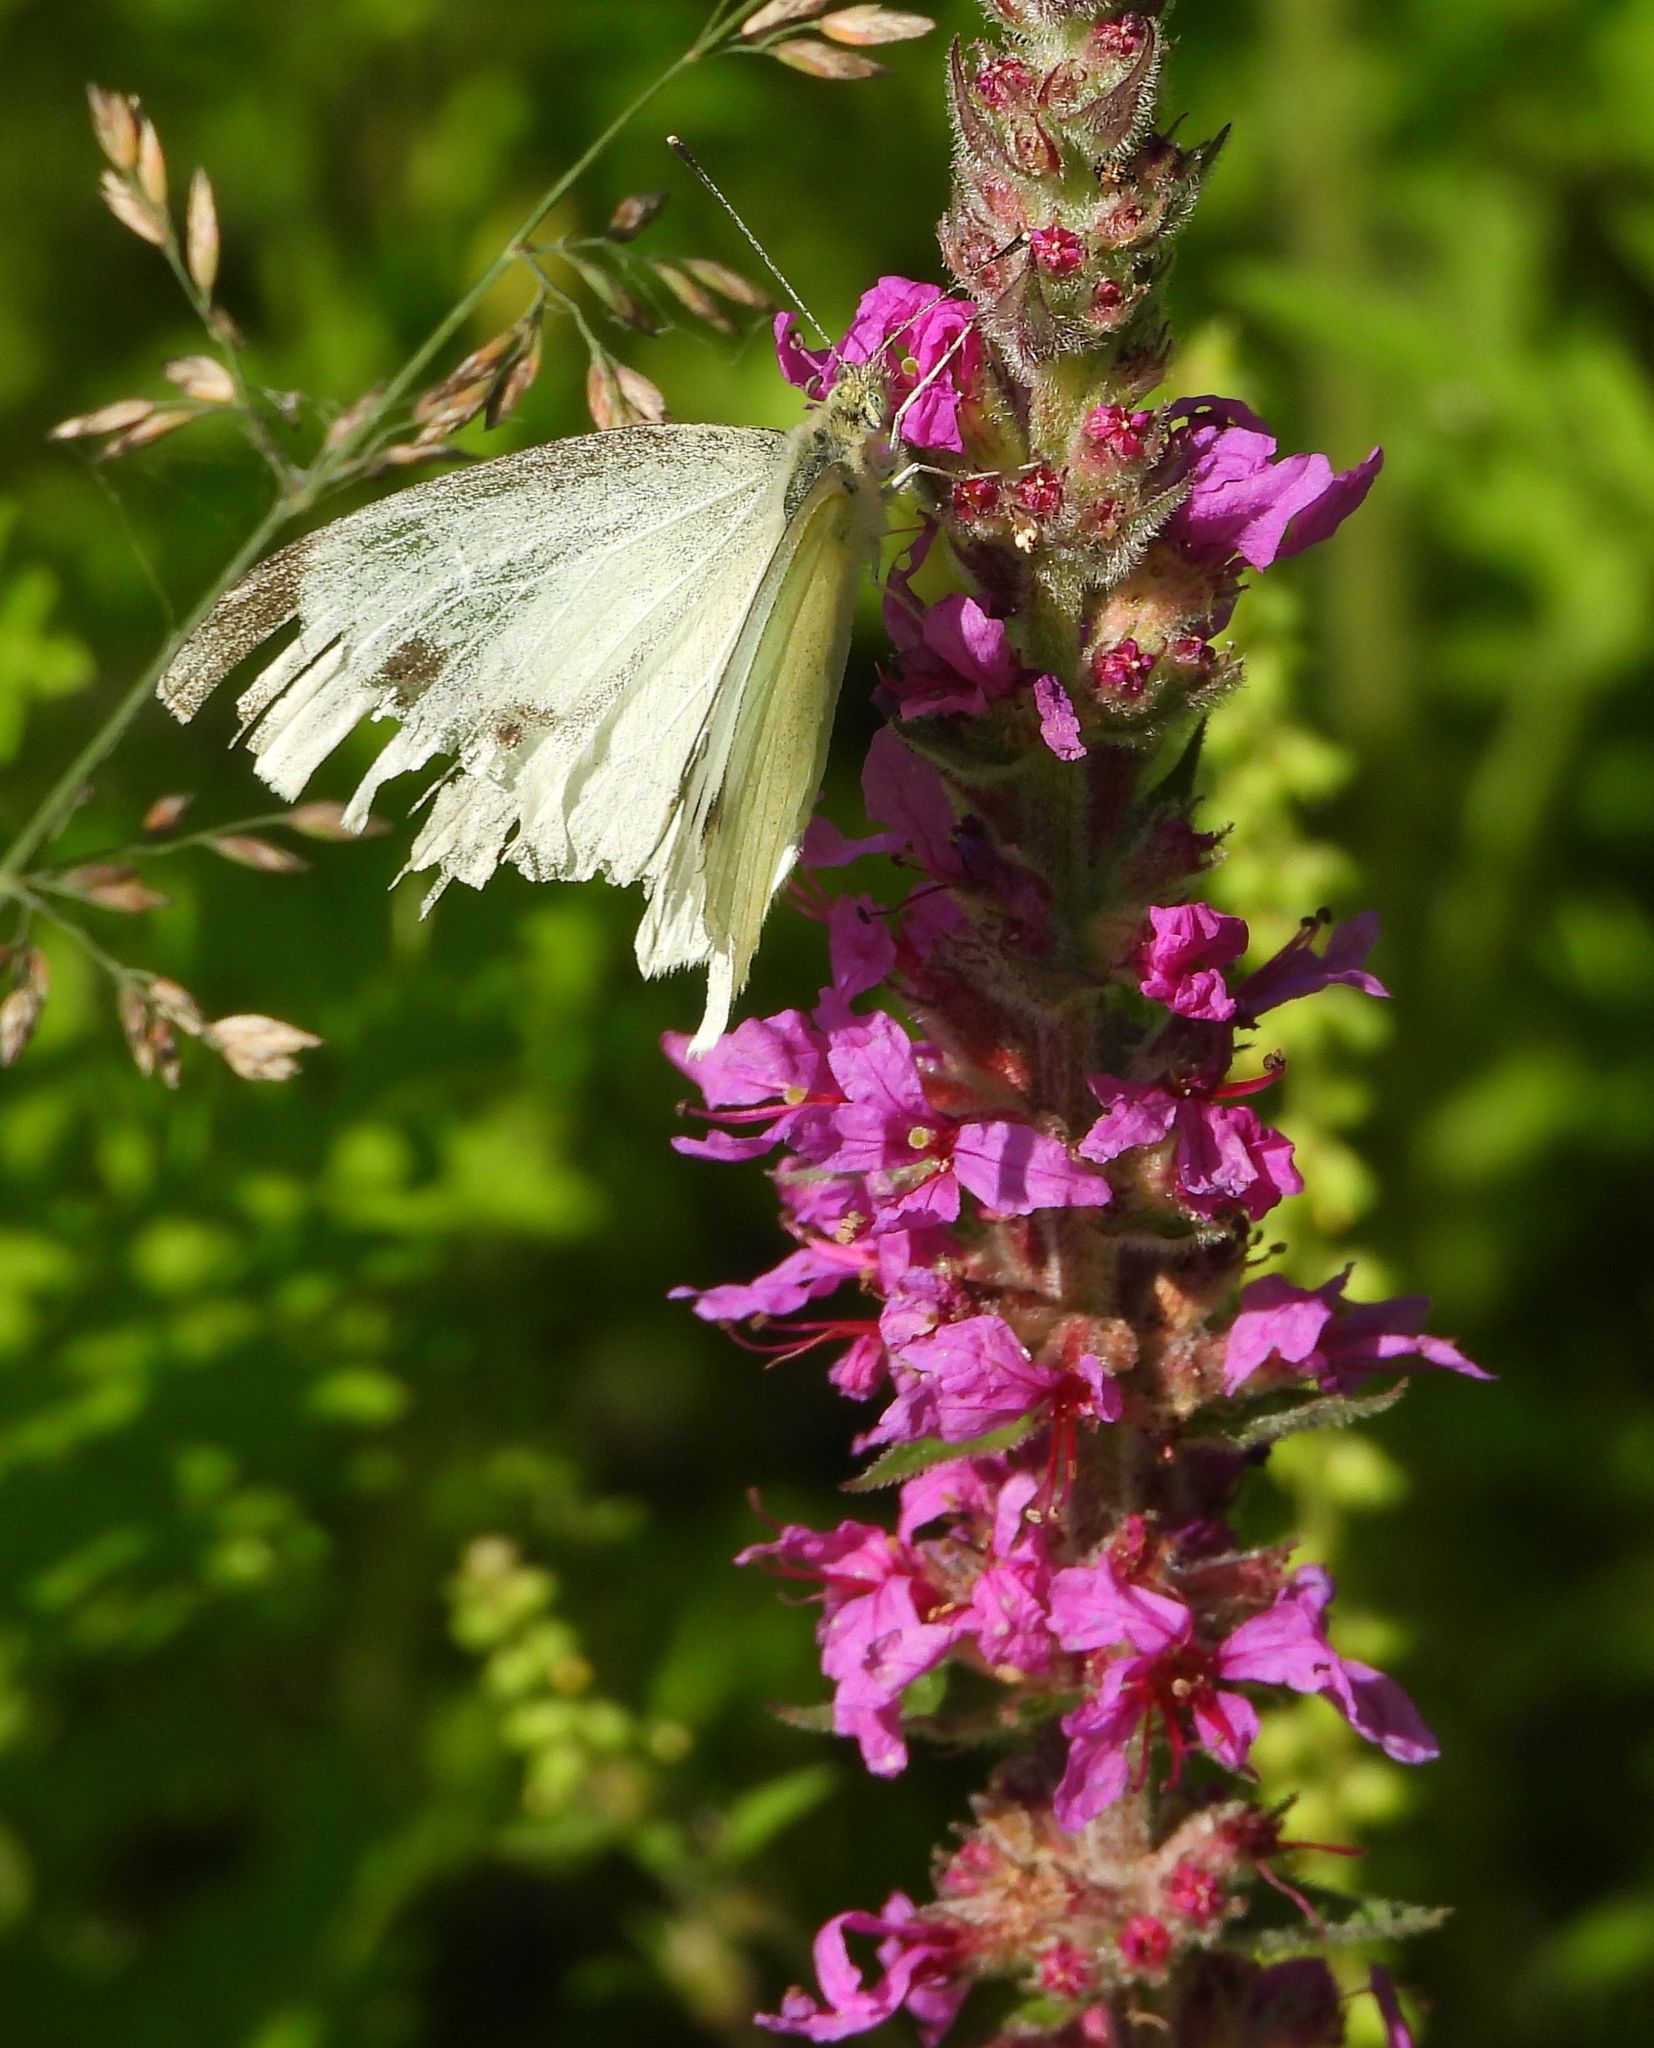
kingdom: Animalia
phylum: Arthropoda
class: Insecta
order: Lepidoptera
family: Pieridae
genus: Pieris
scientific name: Pieris rapae
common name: Small white
